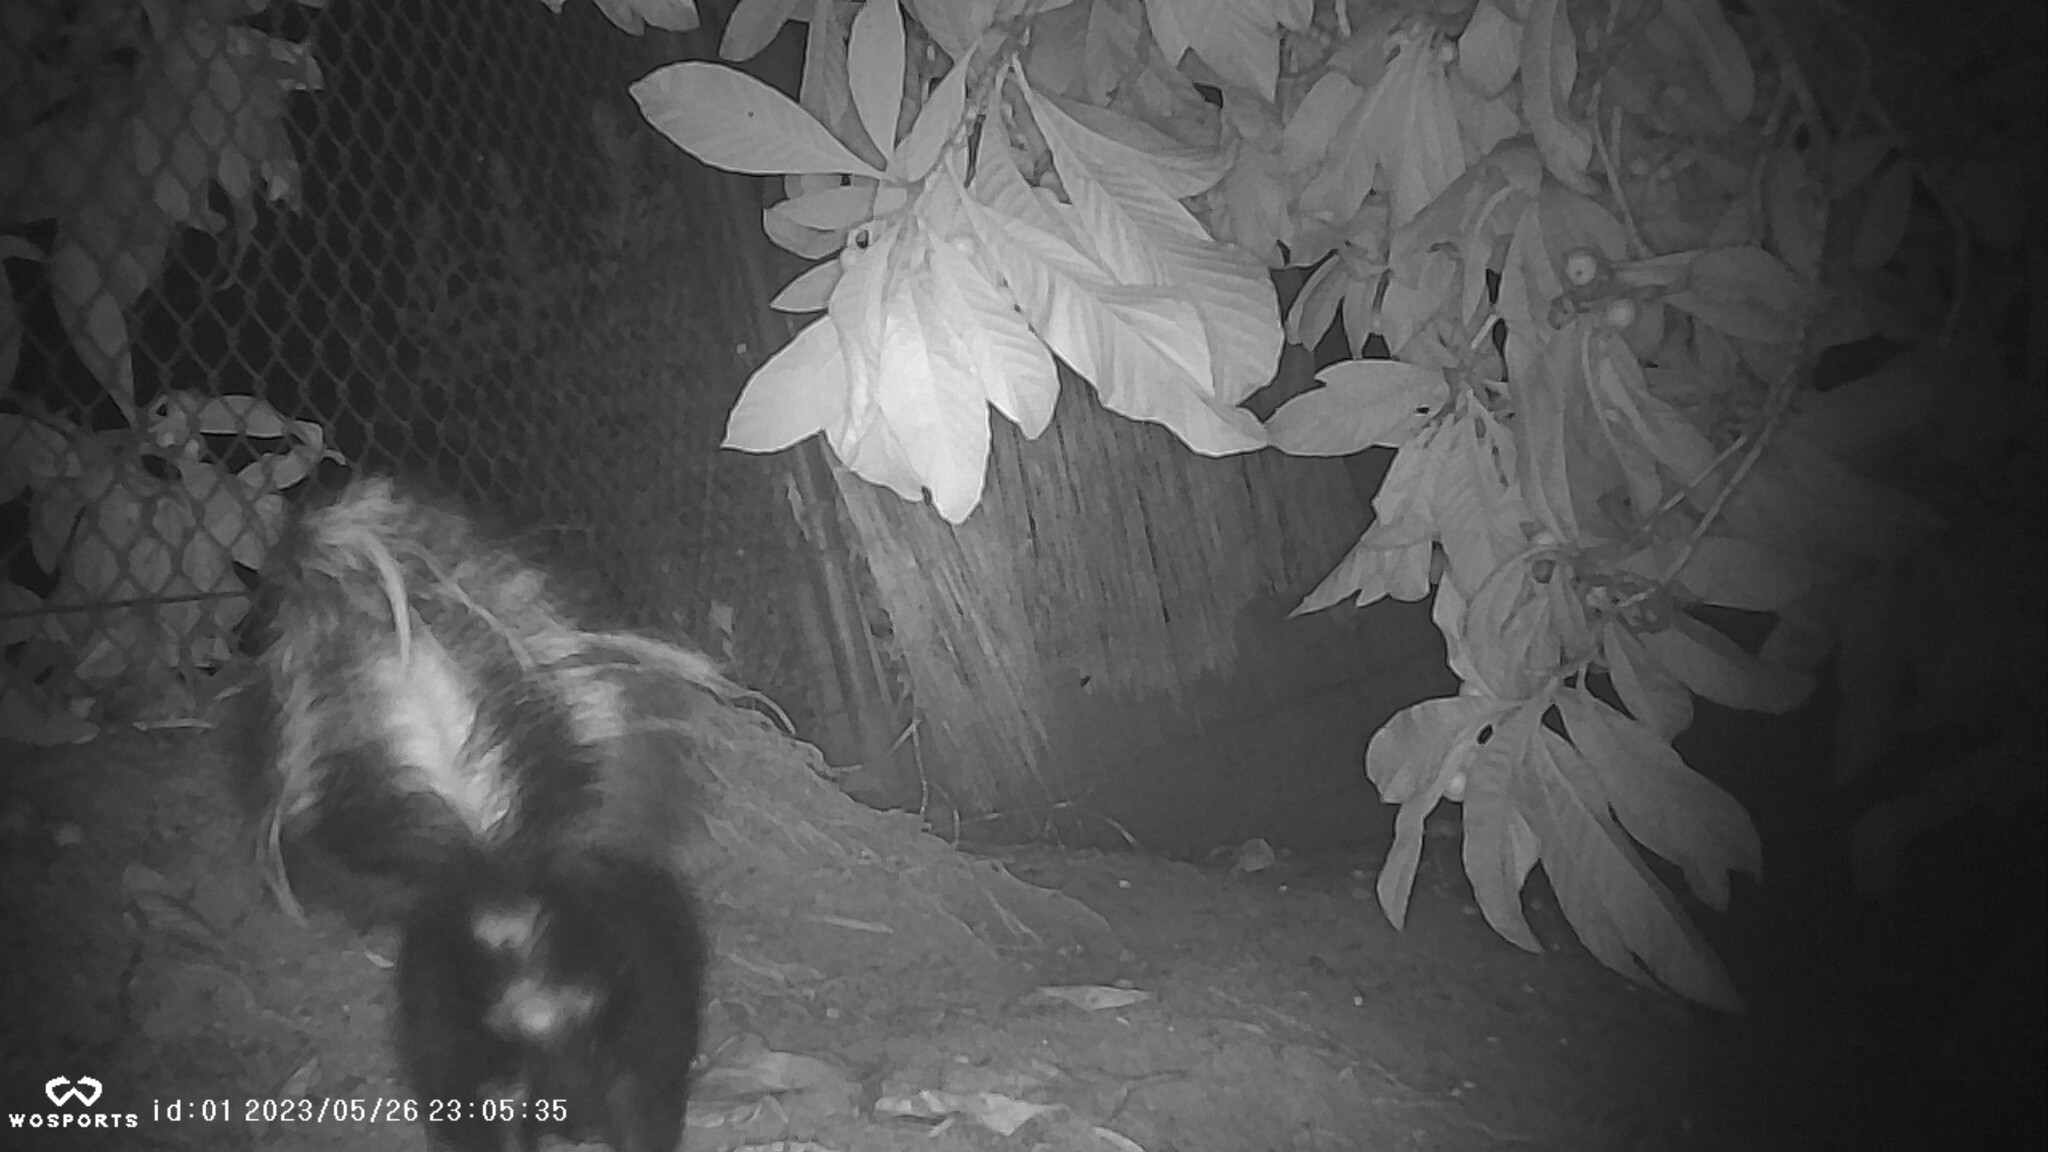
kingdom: Animalia
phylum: Chordata
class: Mammalia
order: Carnivora
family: Mephitidae
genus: Mephitis
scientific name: Mephitis mephitis
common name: Striped skunk
